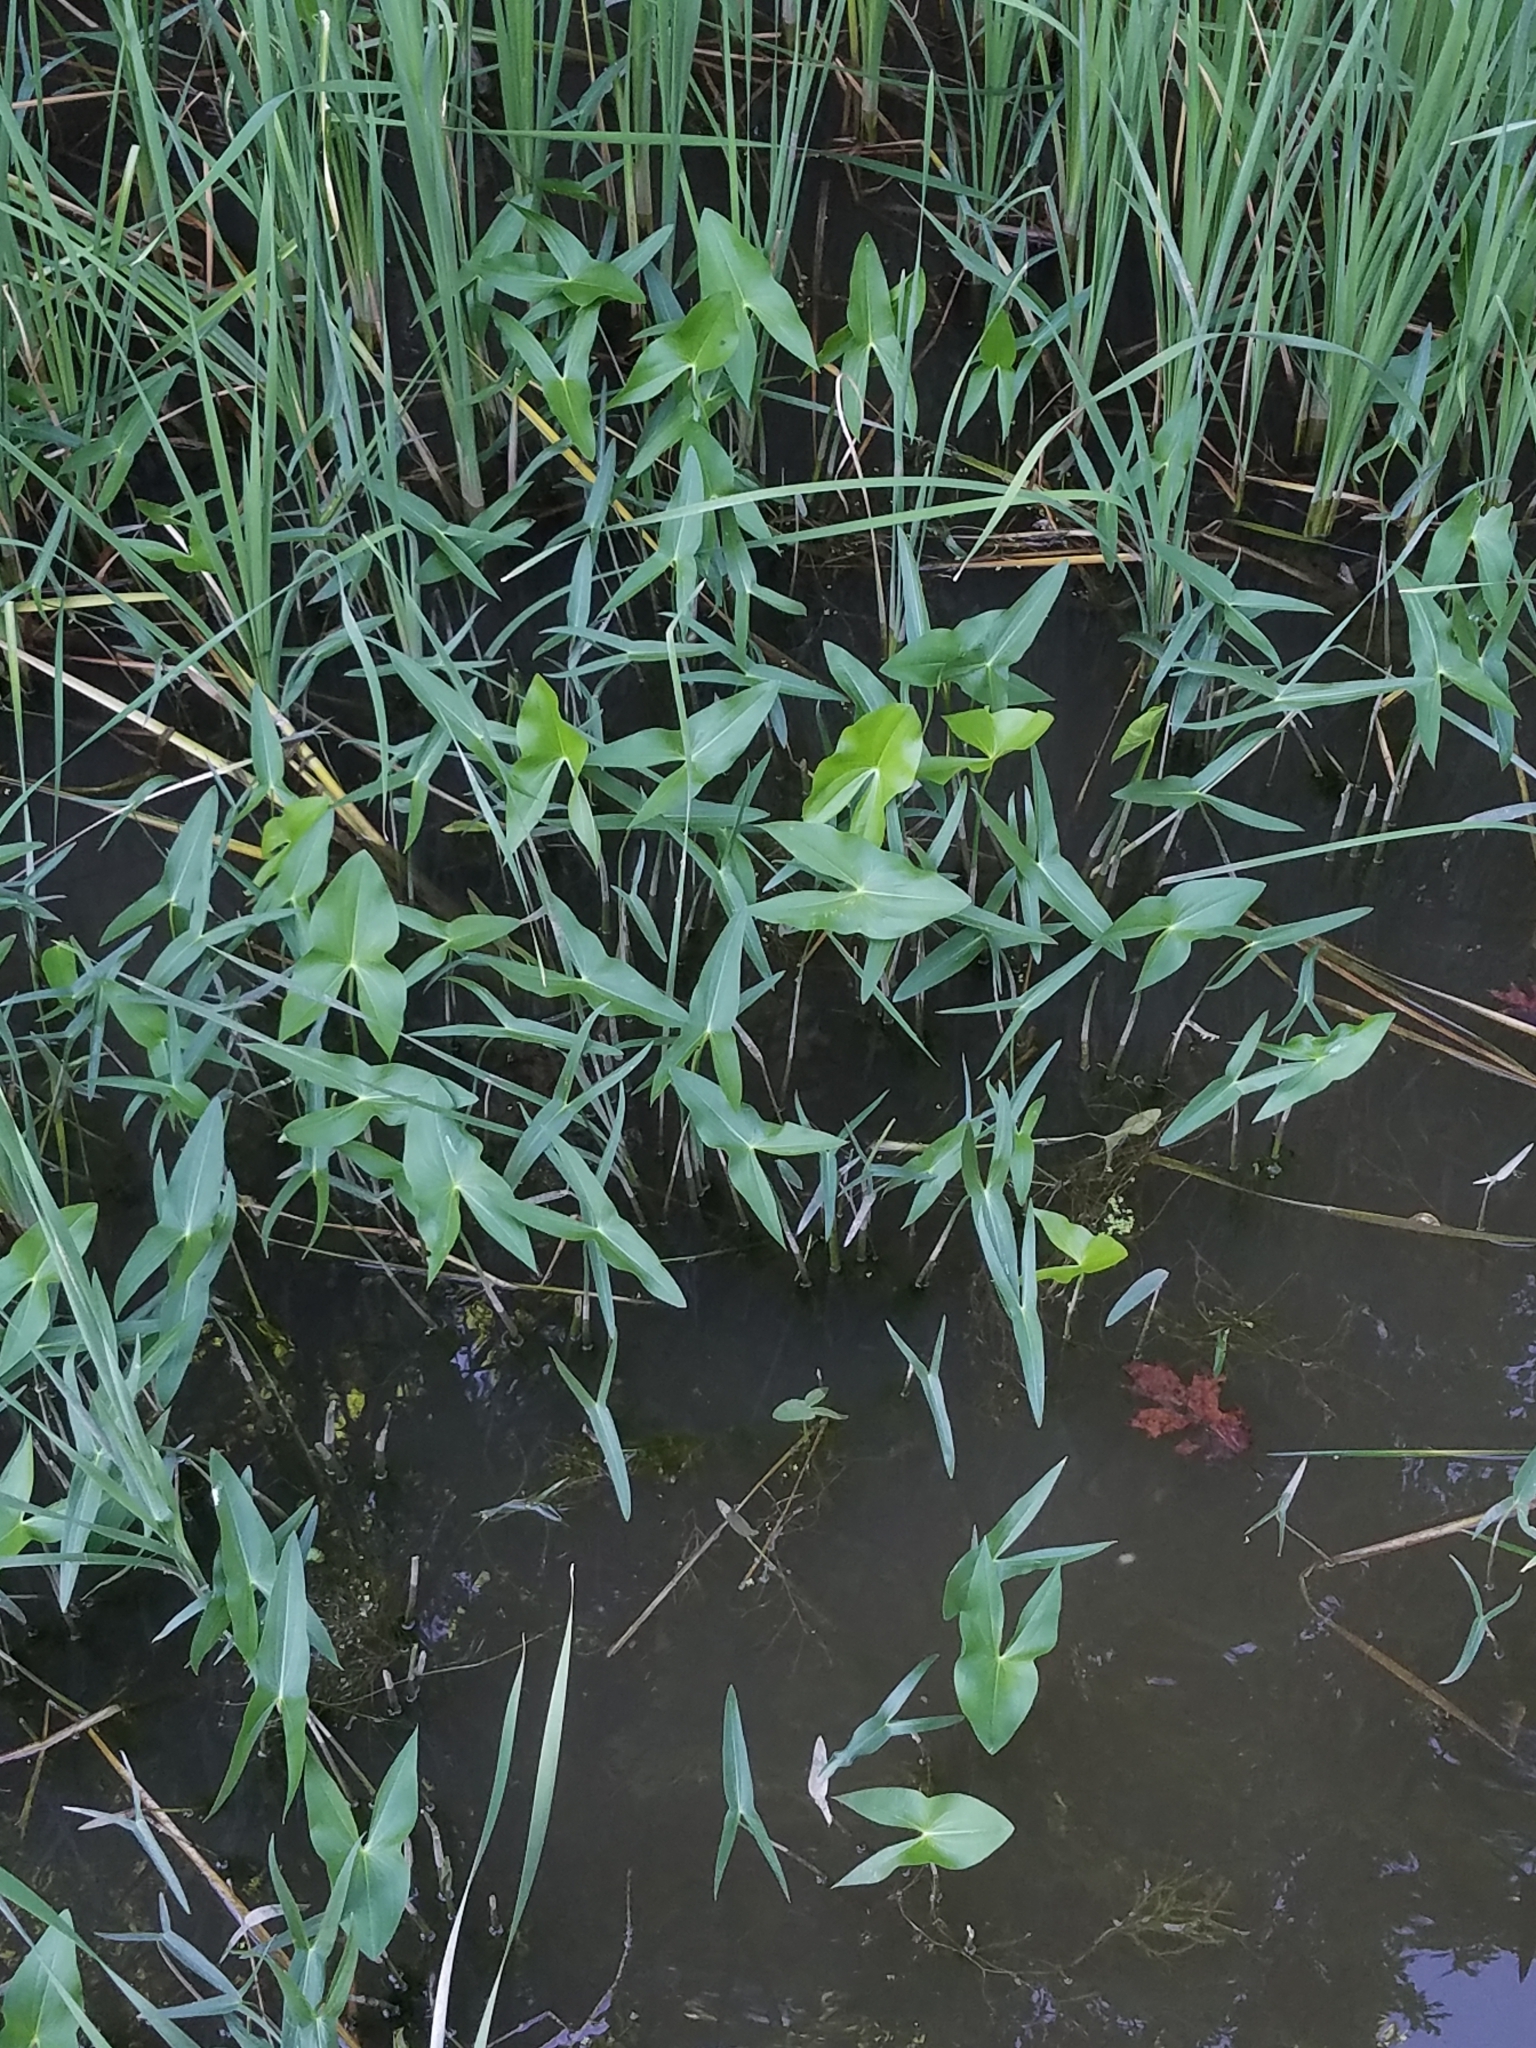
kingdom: Plantae
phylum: Tracheophyta
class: Liliopsida
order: Alismatales
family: Alismataceae
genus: Sagittaria
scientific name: Sagittaria latifolia
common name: Duck-potato
